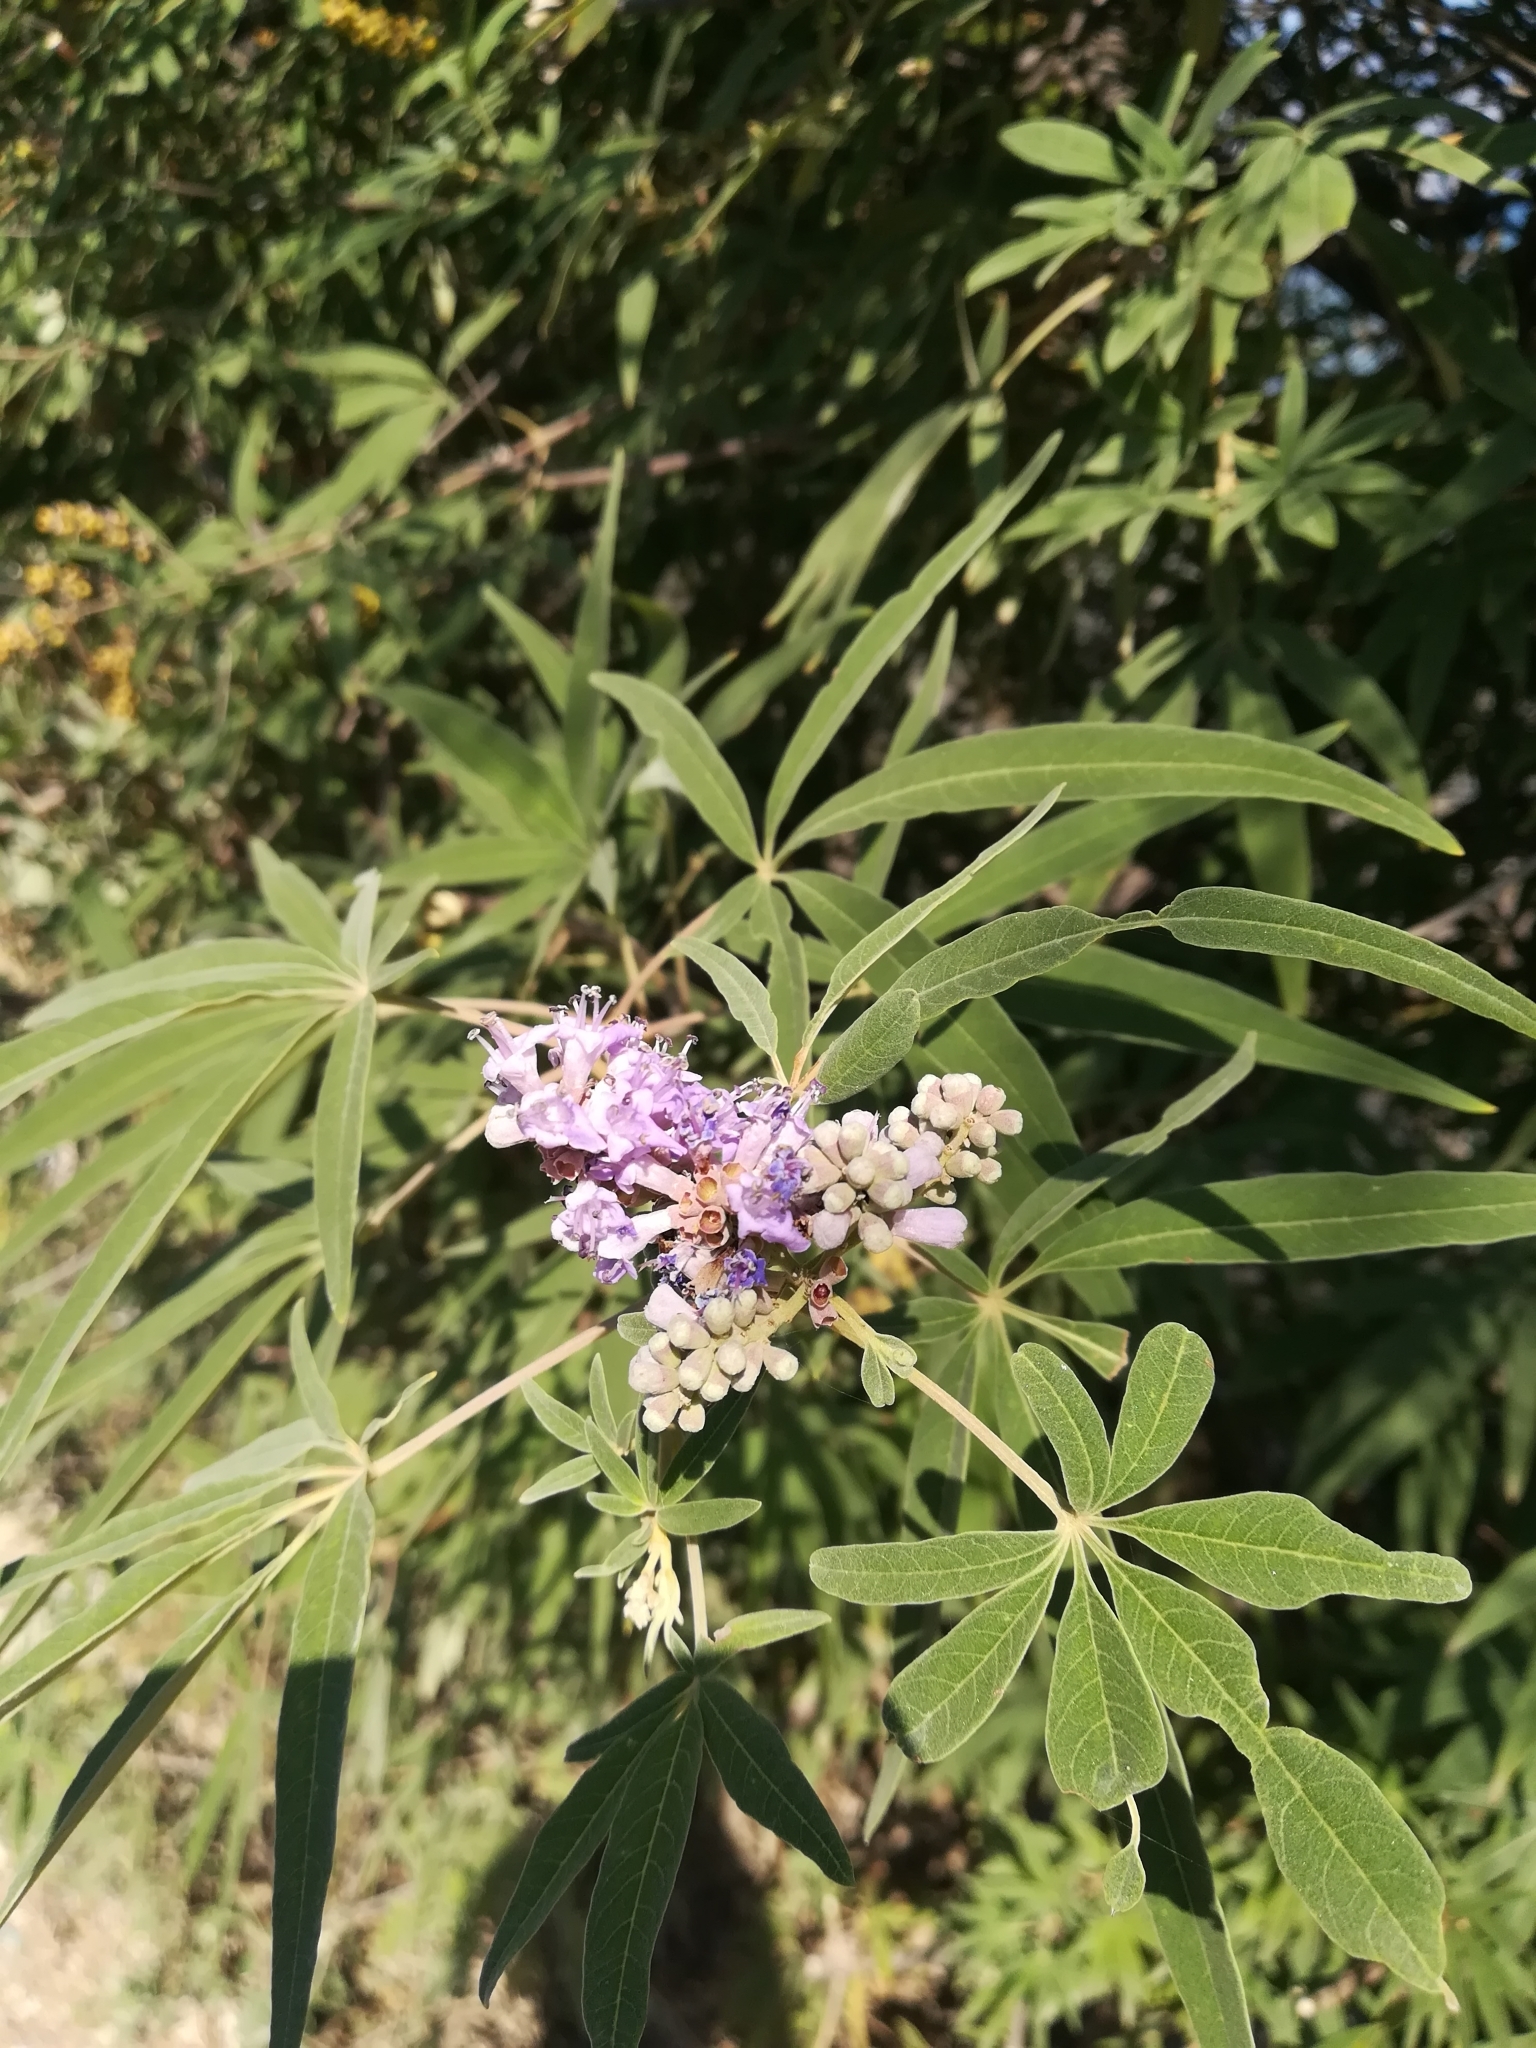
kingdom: Plantae
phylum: Tracheophyta
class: Magnoliopsida
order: Lamiales
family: Lamiaceae
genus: Vitex
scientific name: Vitex agnus-castus
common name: Chasteberry
